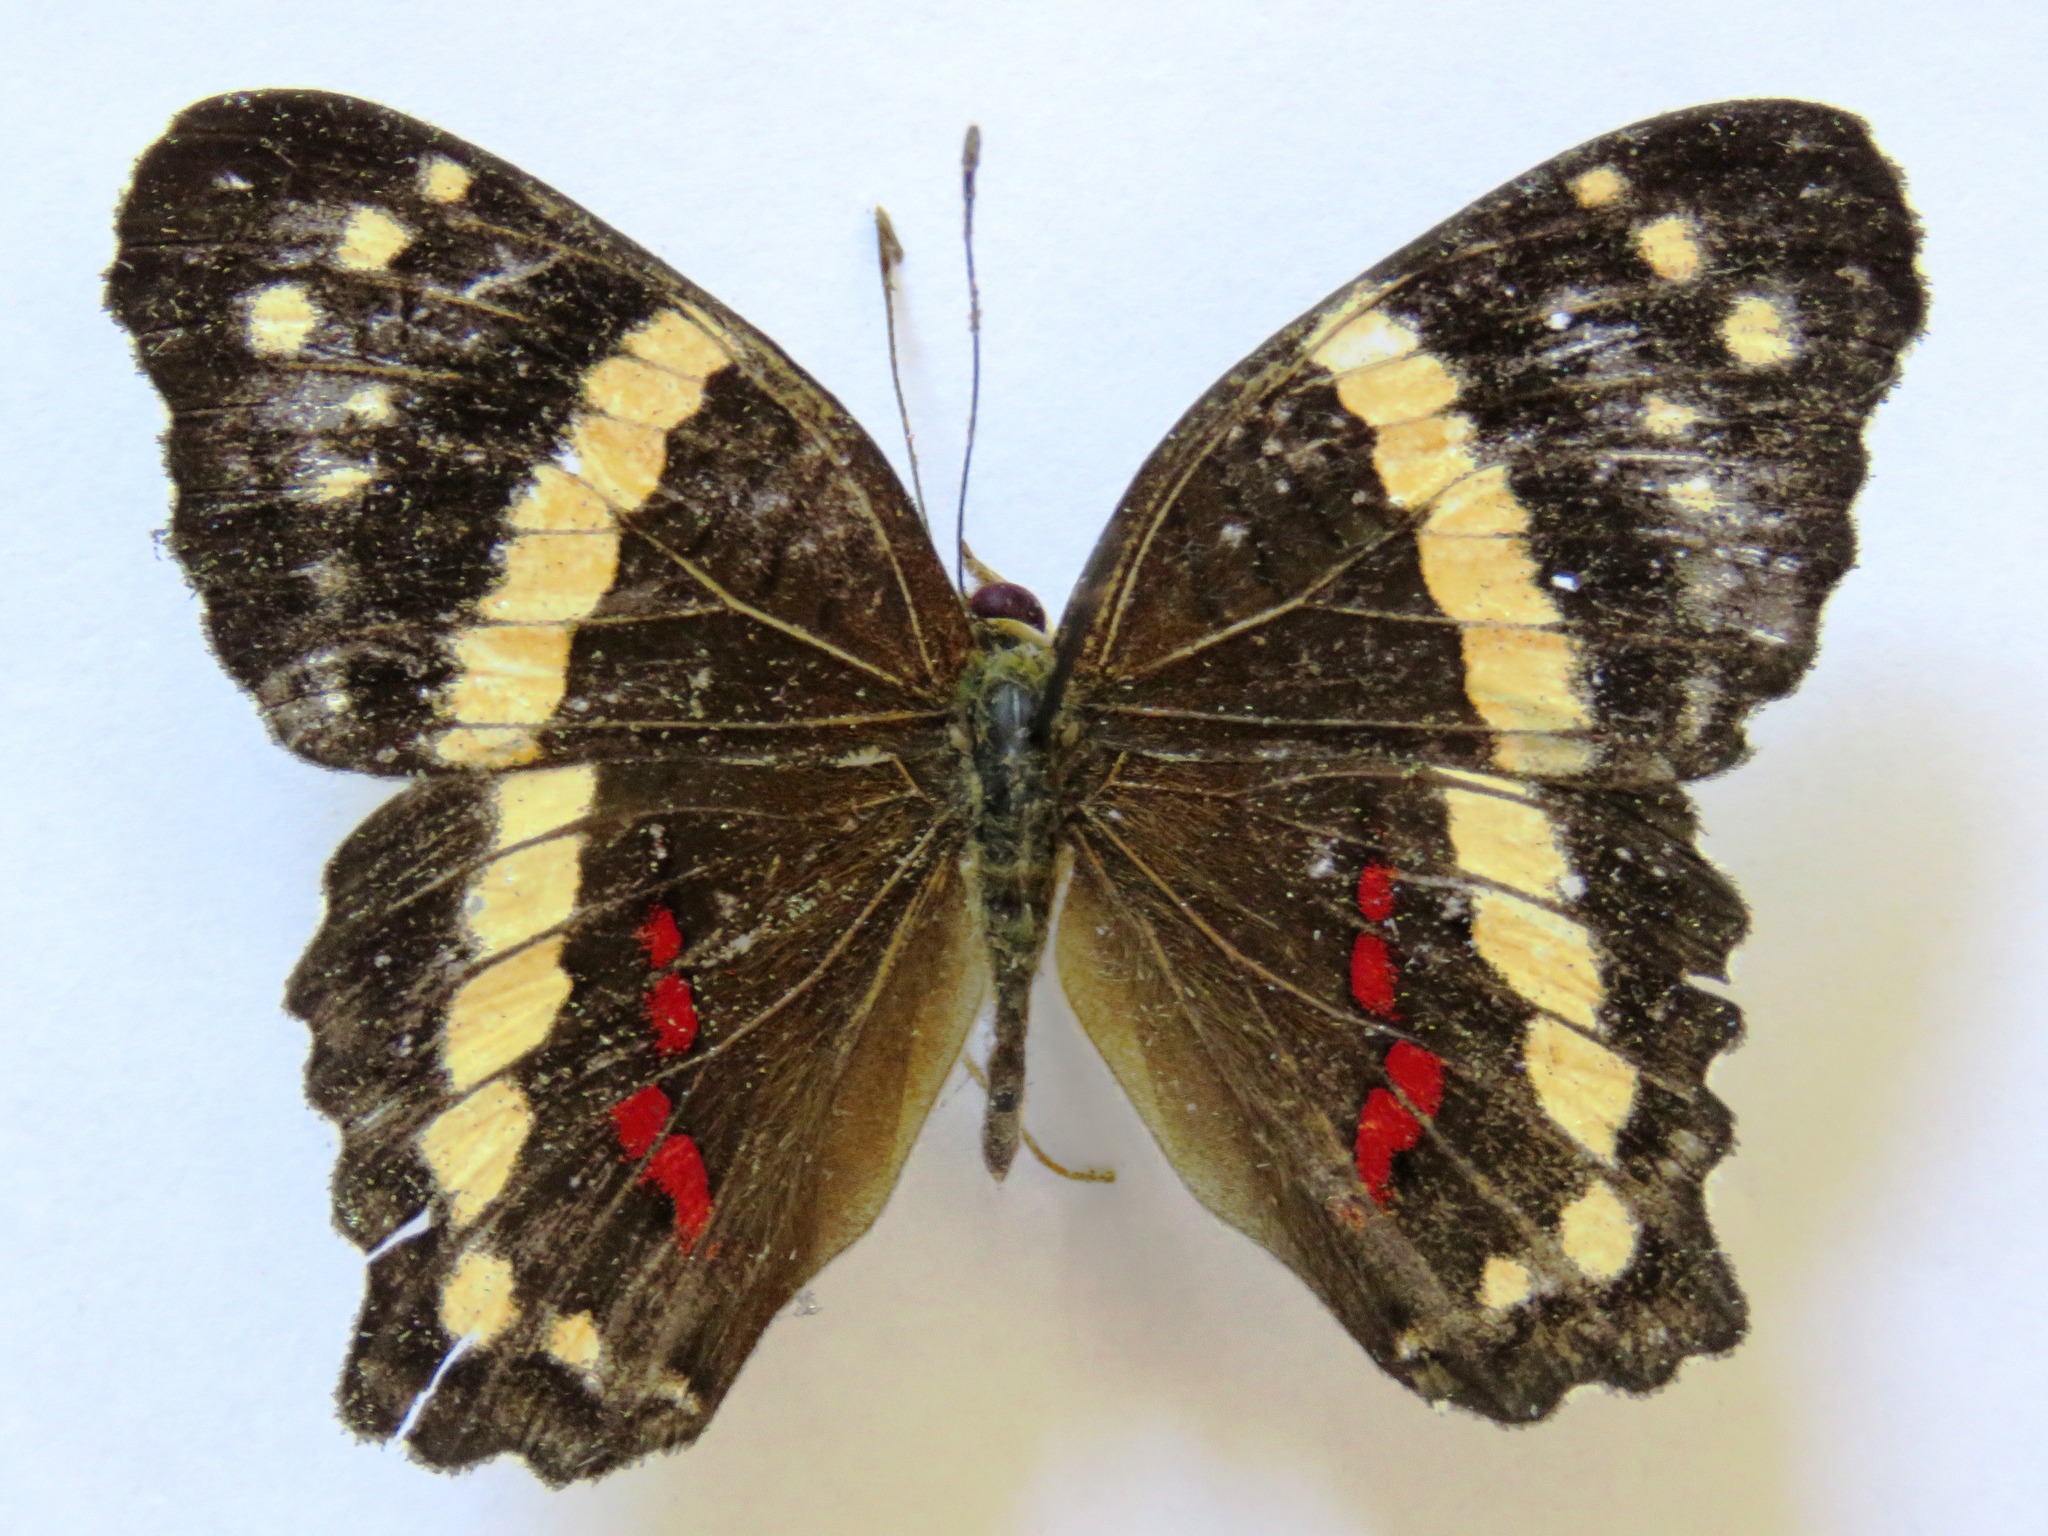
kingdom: Animalia
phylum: Arthropoda
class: Insecta
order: Lepidoptera
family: Nymphalidae
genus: Anartia
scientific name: Anartia fatima
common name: Banded peacock
